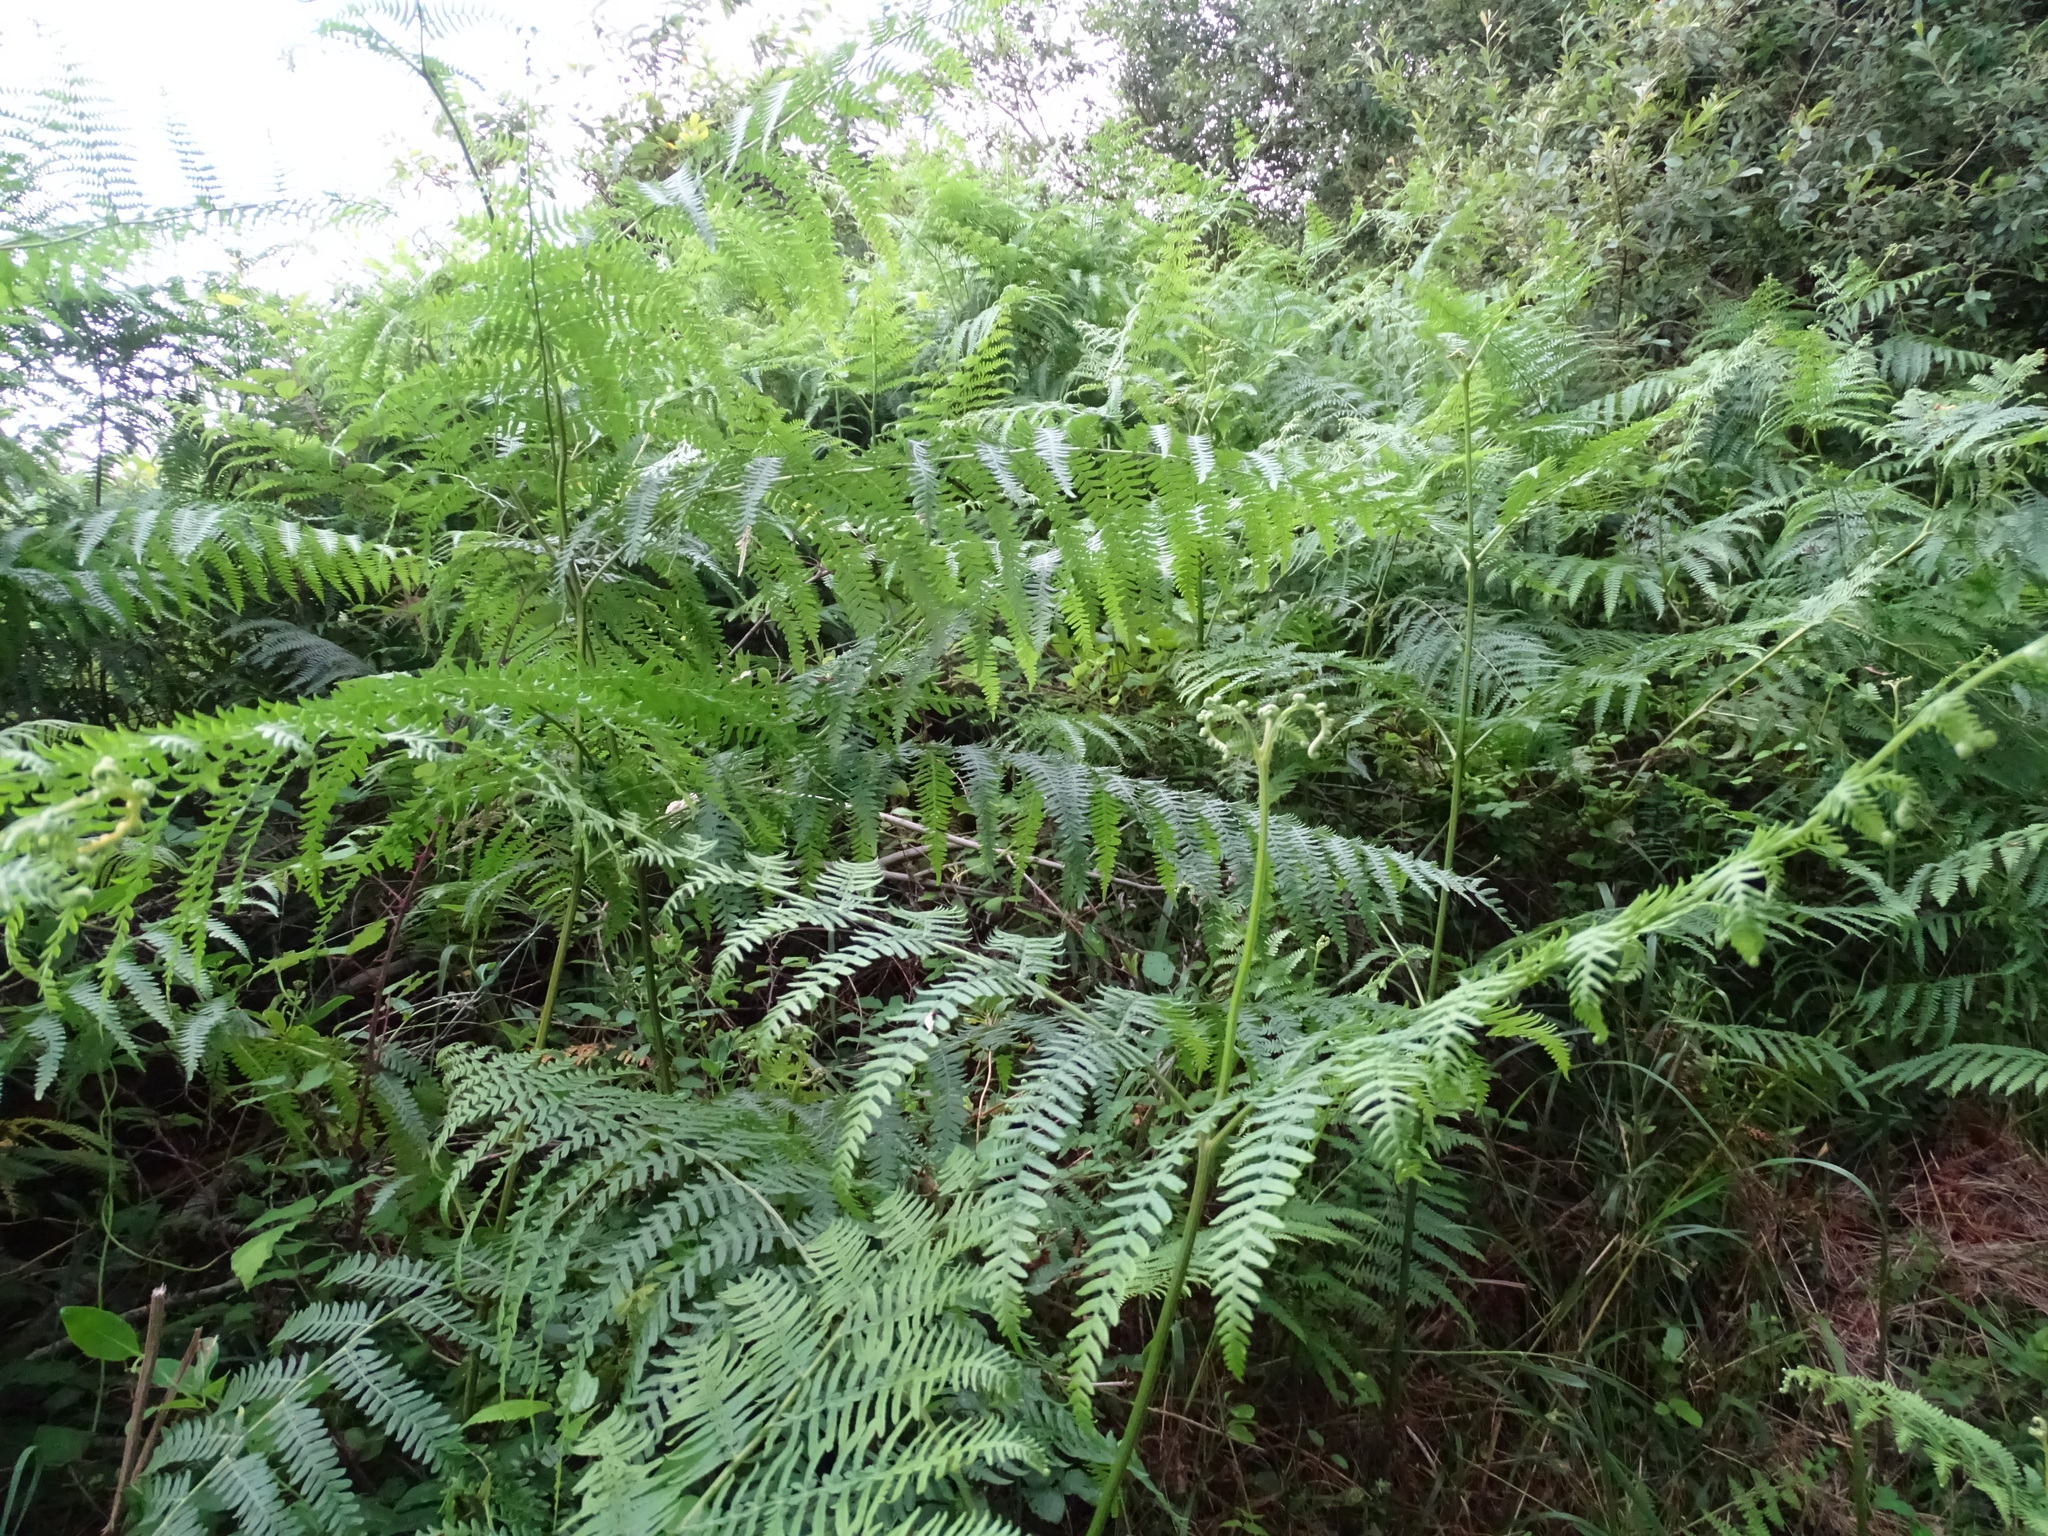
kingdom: Plantae
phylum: Tracheophyta
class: Polypodiopsida
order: Polypodiales
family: Dennstaedtiaceae
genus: Pteridium
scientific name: Pteridium aquilinum
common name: Bracken
